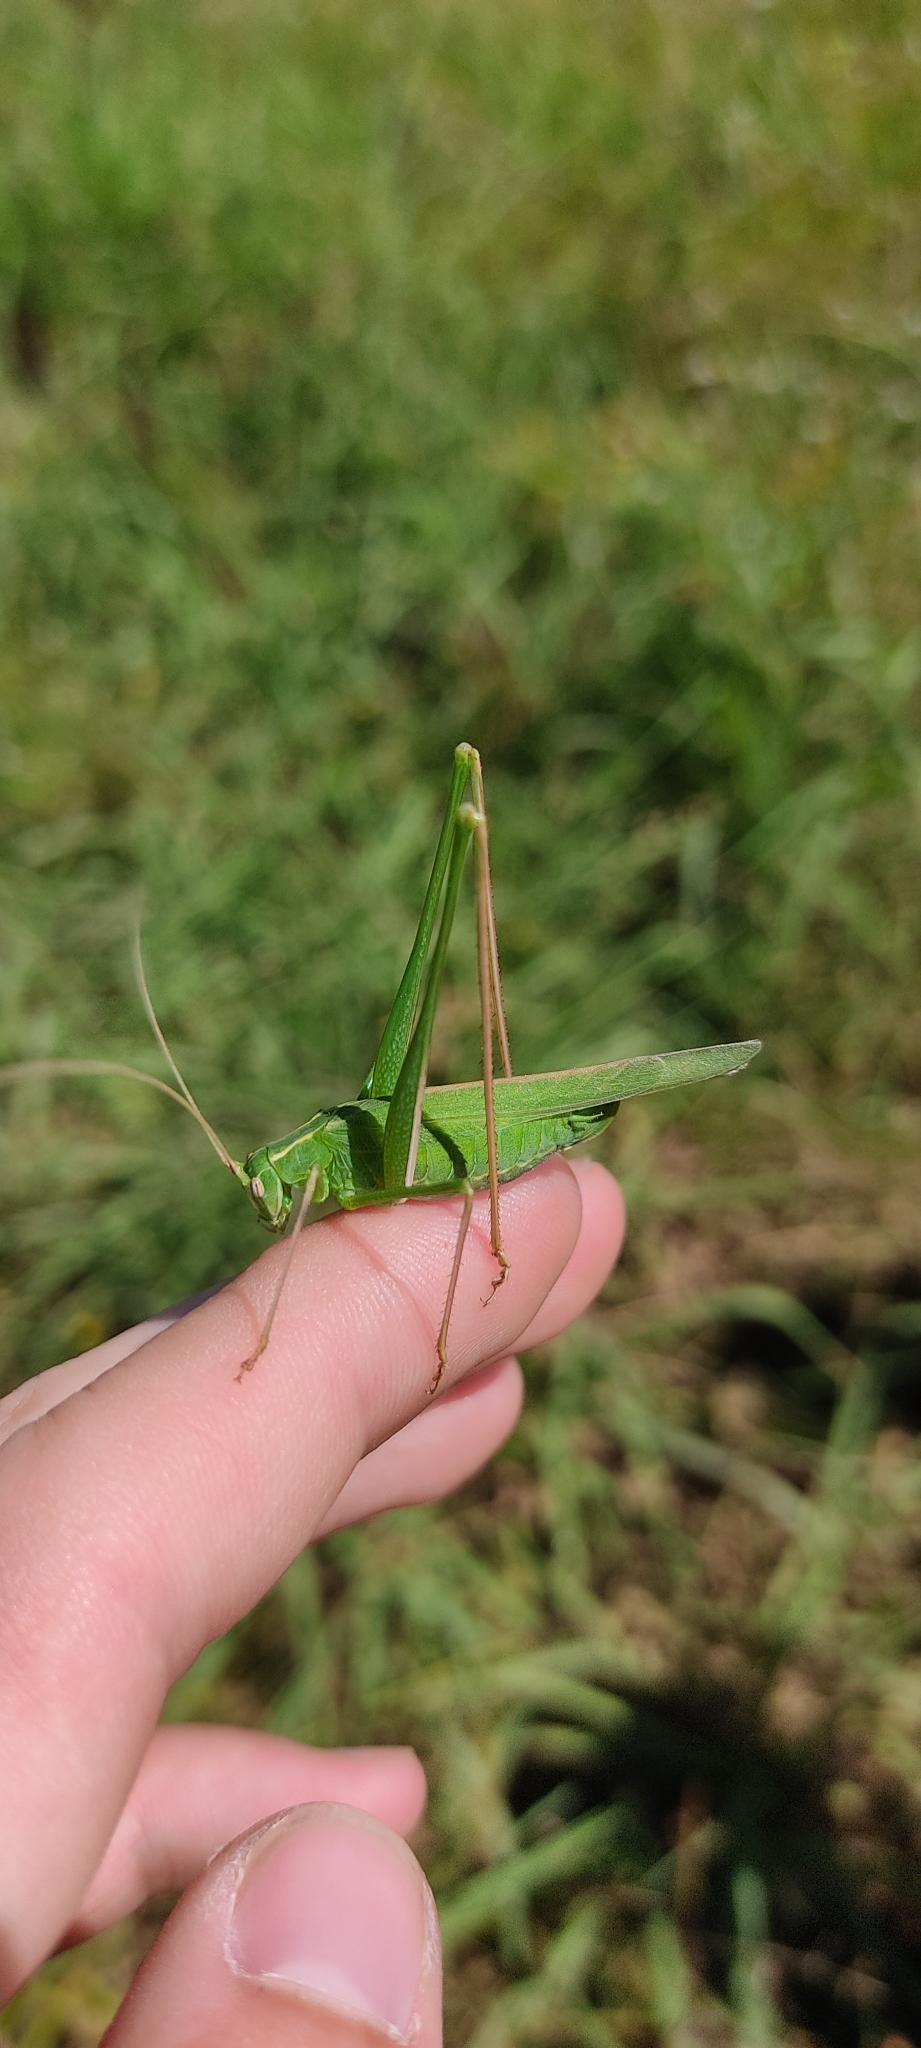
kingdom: Animalia
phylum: Arthropoda
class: Insecta
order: Orthoptera
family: Tettigoniidae
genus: Tylopsis
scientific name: Tylopsis lilifolia
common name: Lily bush-cricket
